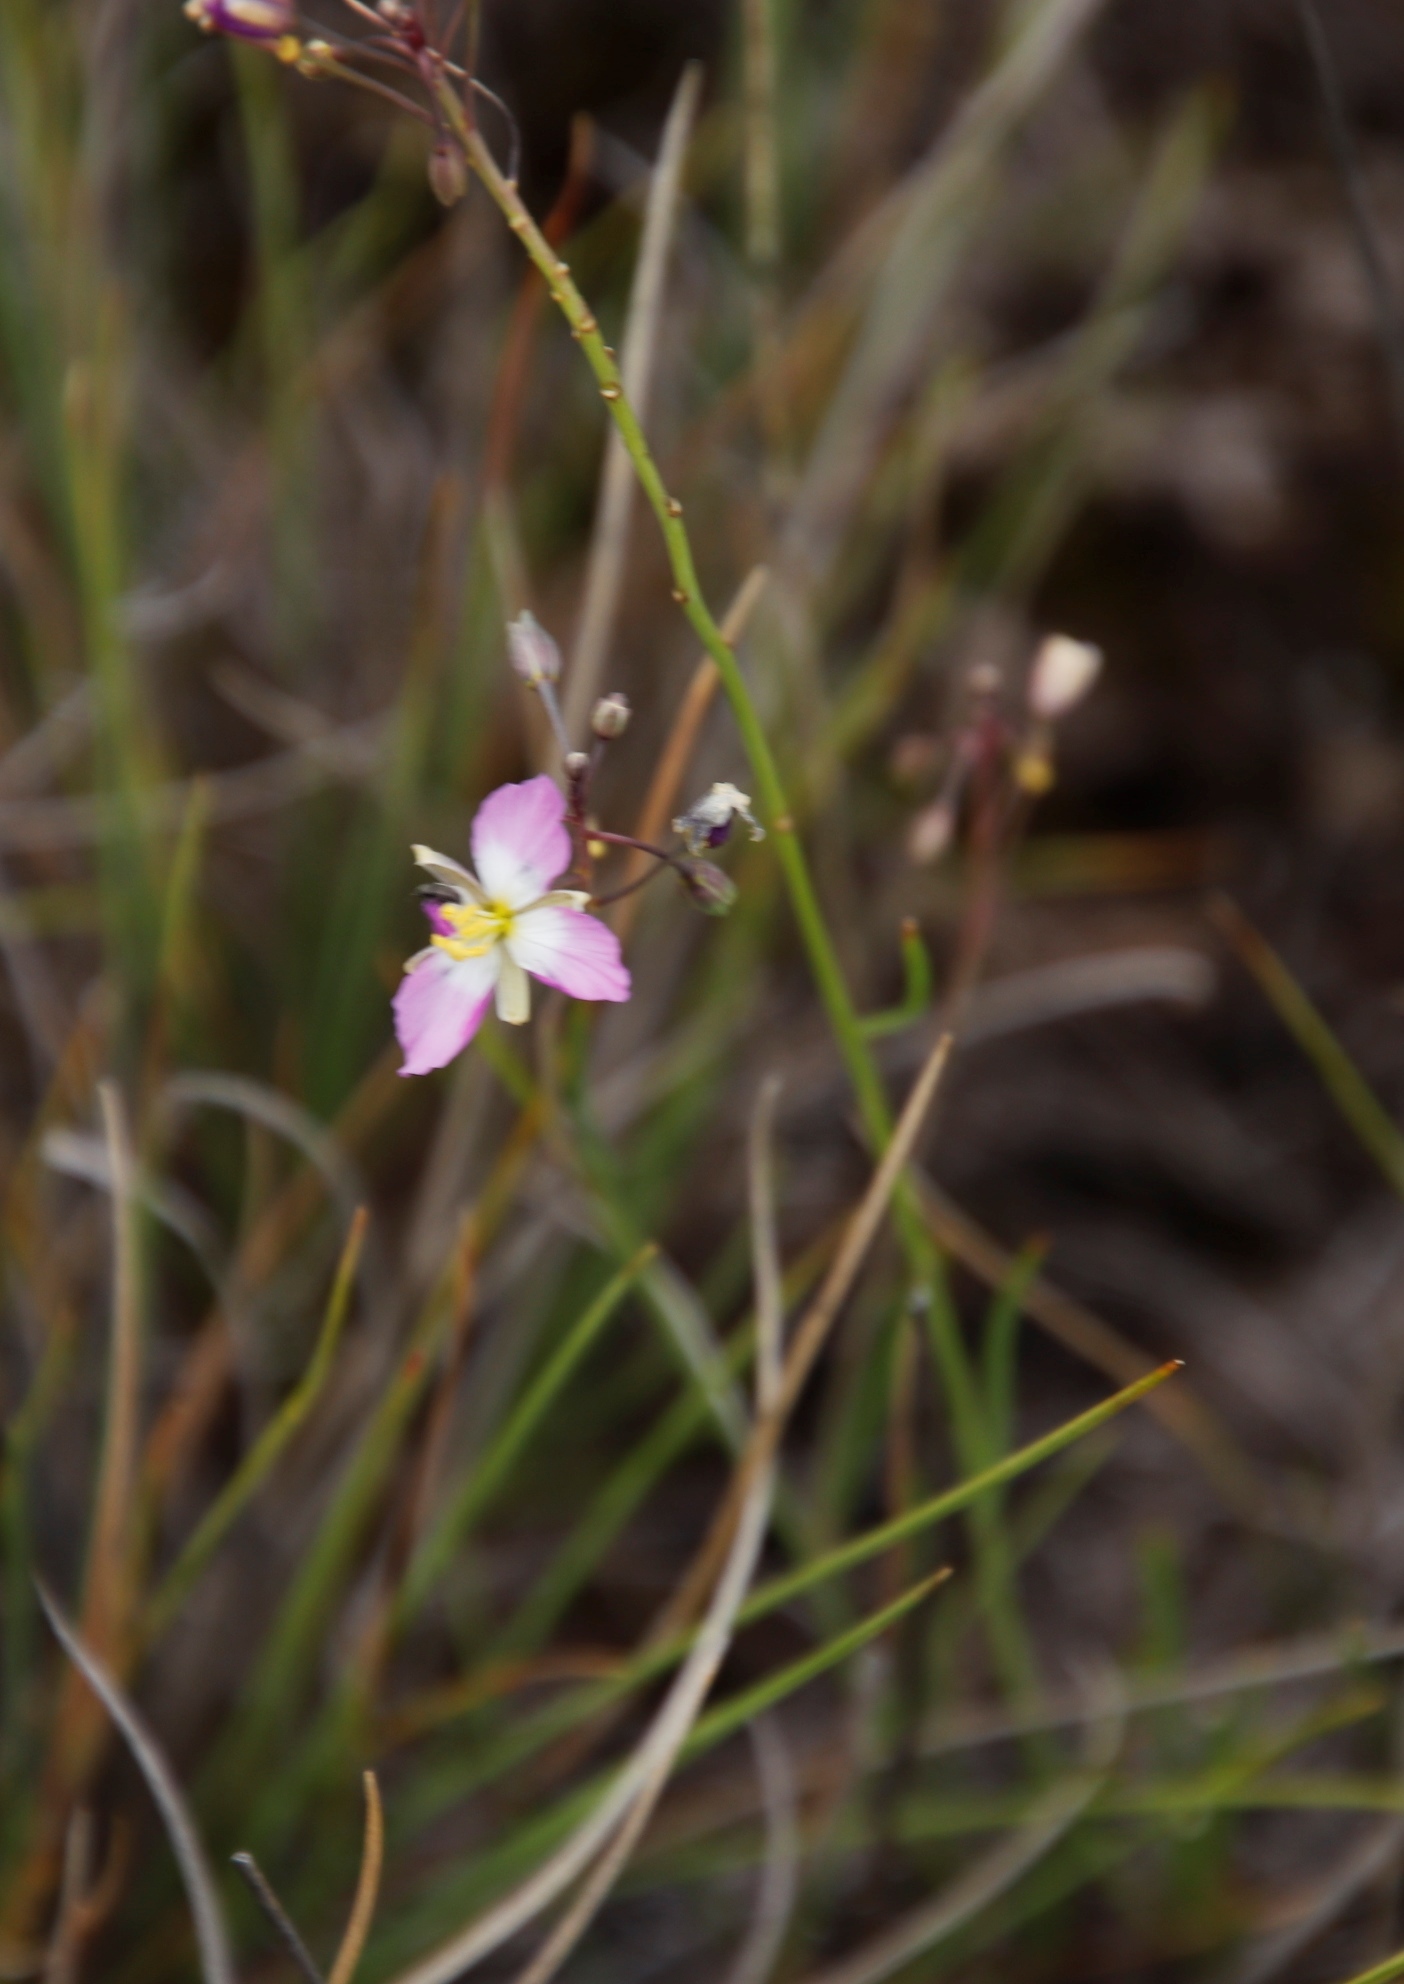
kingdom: Plantae
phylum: Tracheophyta
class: Magnoliopsida
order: Brassicales
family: Brassicaceae
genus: Heliophila
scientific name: Heliophila carnosa
